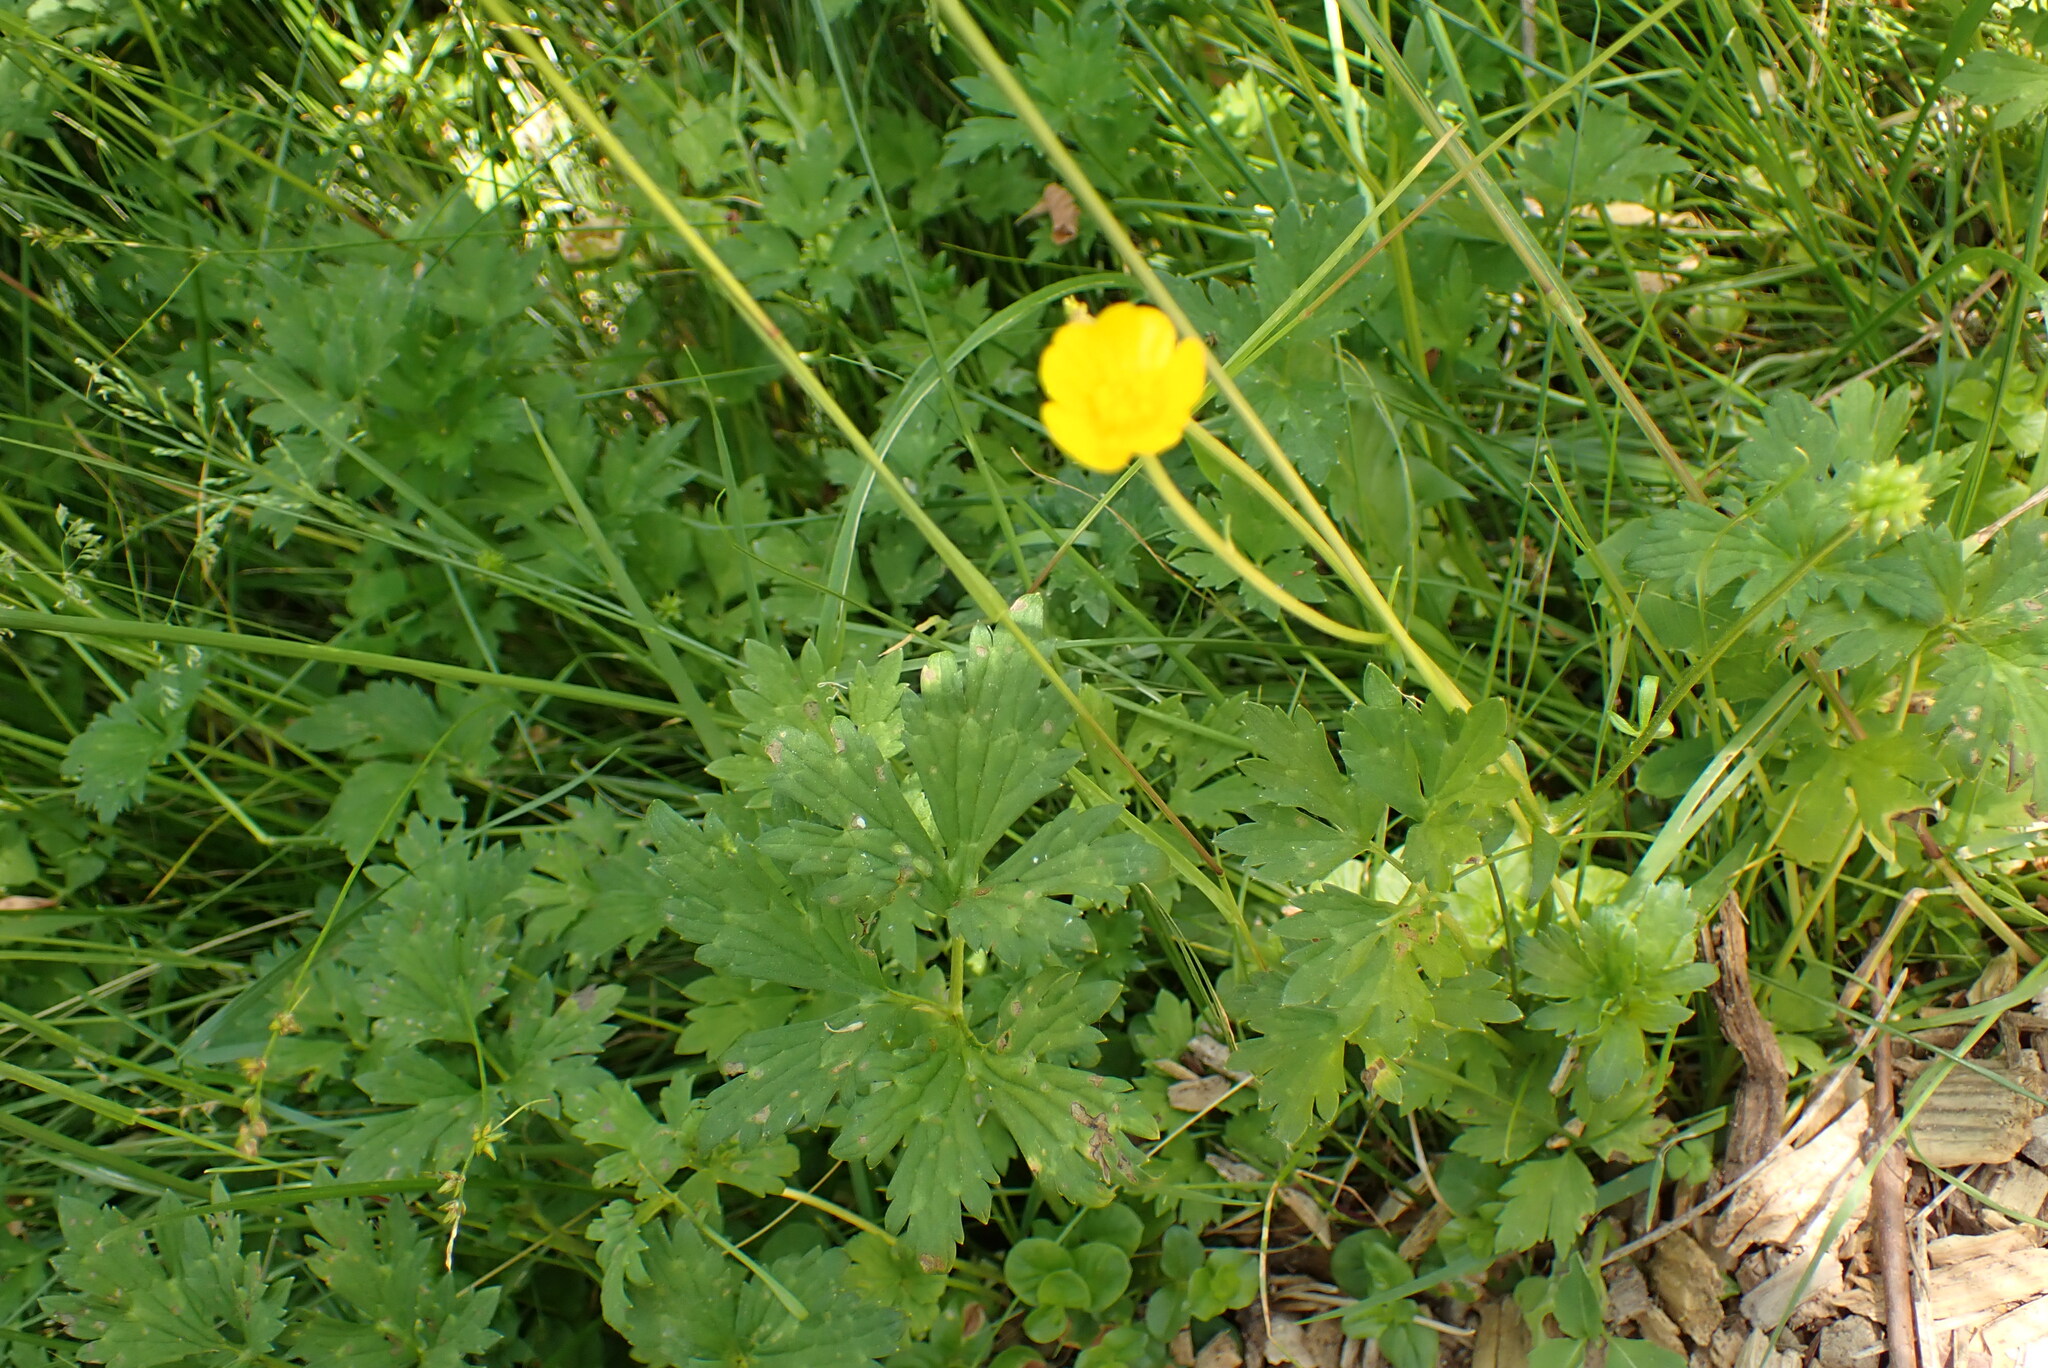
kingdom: Plantae
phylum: Tracheophyta
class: Magnoliopsida
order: Ranunculales
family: Ranunculaceae
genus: Ranunculus
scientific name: Ranunculus repens
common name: Creeping buttercup
